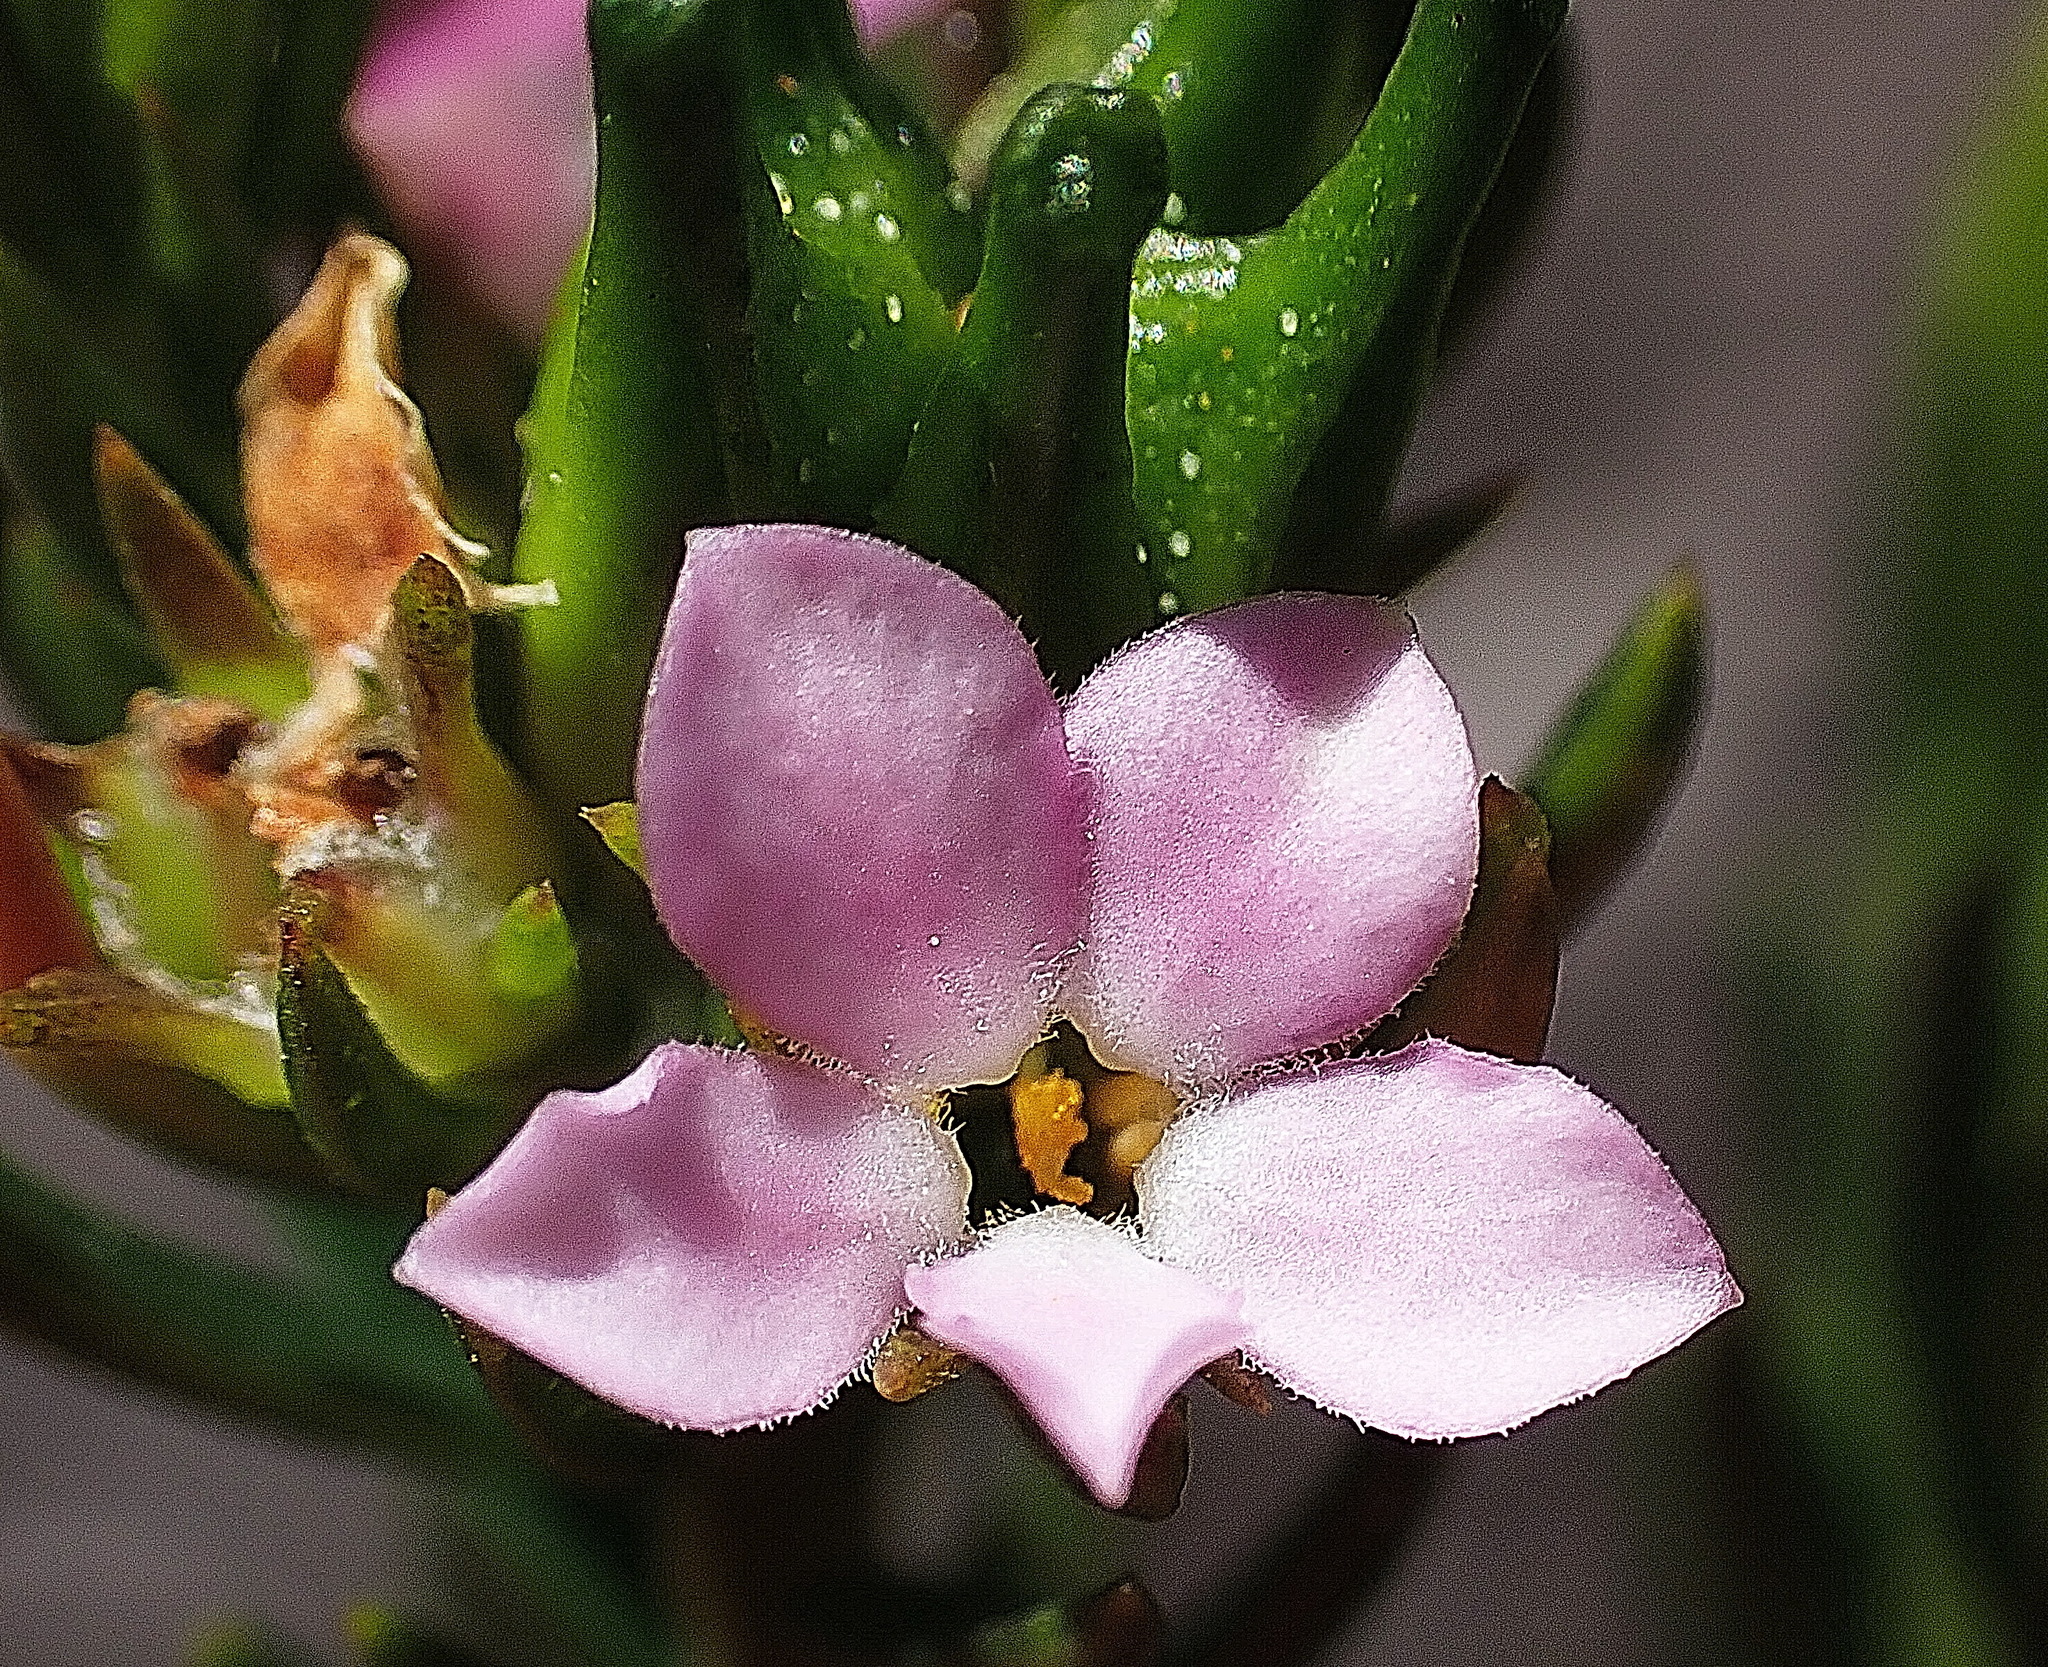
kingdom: Plantae
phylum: Tracheophyta
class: Magnoliopsida
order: Sapindales
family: Rutaceae
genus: Acmadenia
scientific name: Acmadenia alternifolia
